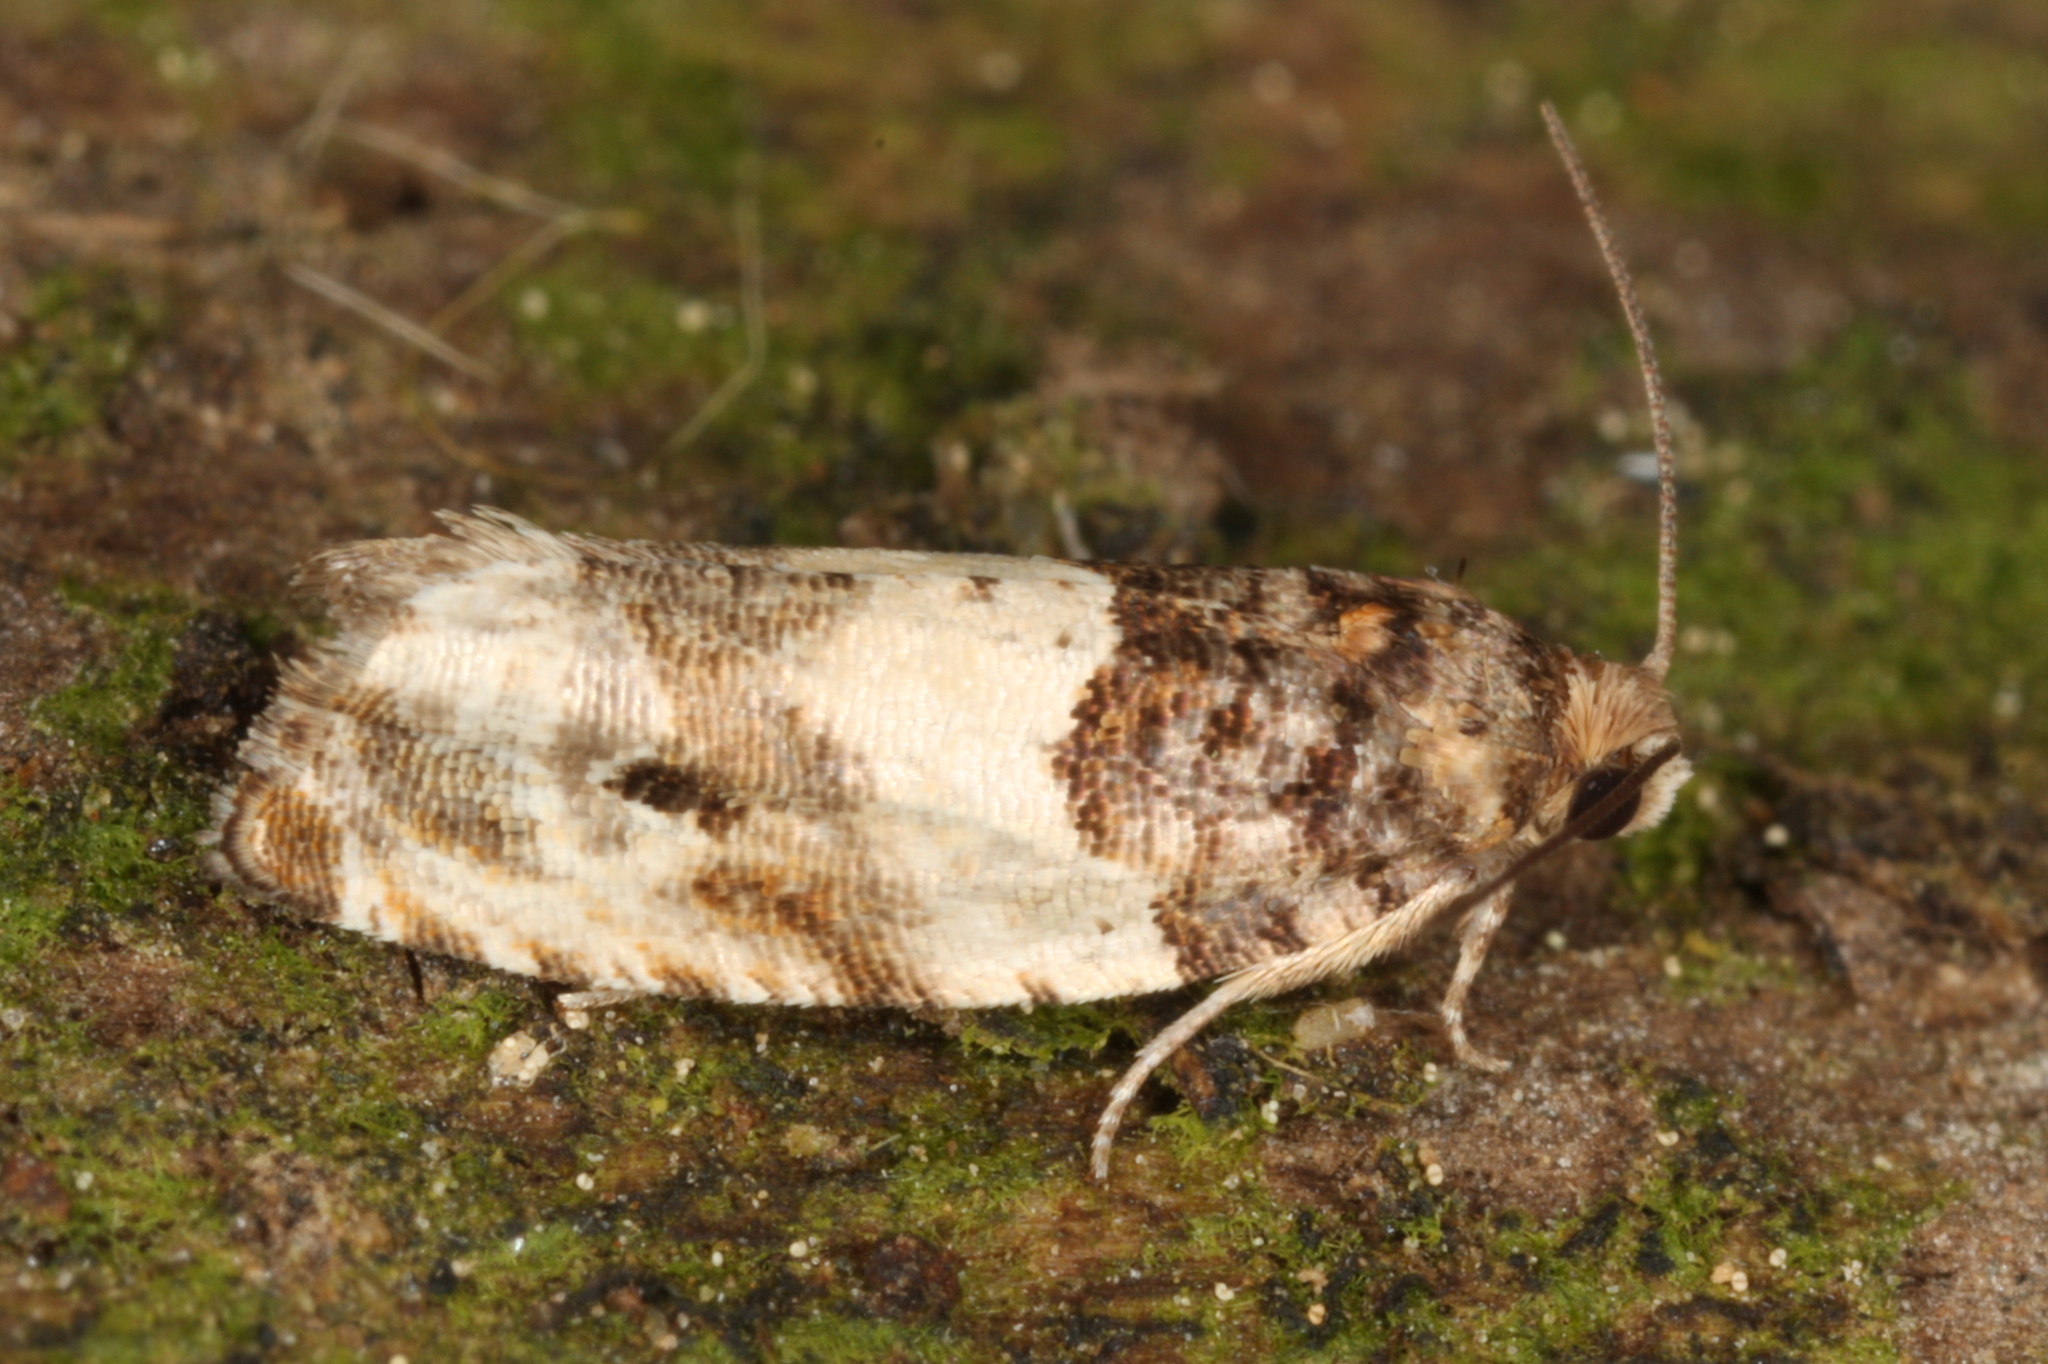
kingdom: Animalia
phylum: Arthropoda
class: Insecta
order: Lepidoptera
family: Tortricidae
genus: Gypsonoma
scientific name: Gypsonoma dealbana
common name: Common cloaked shoot
